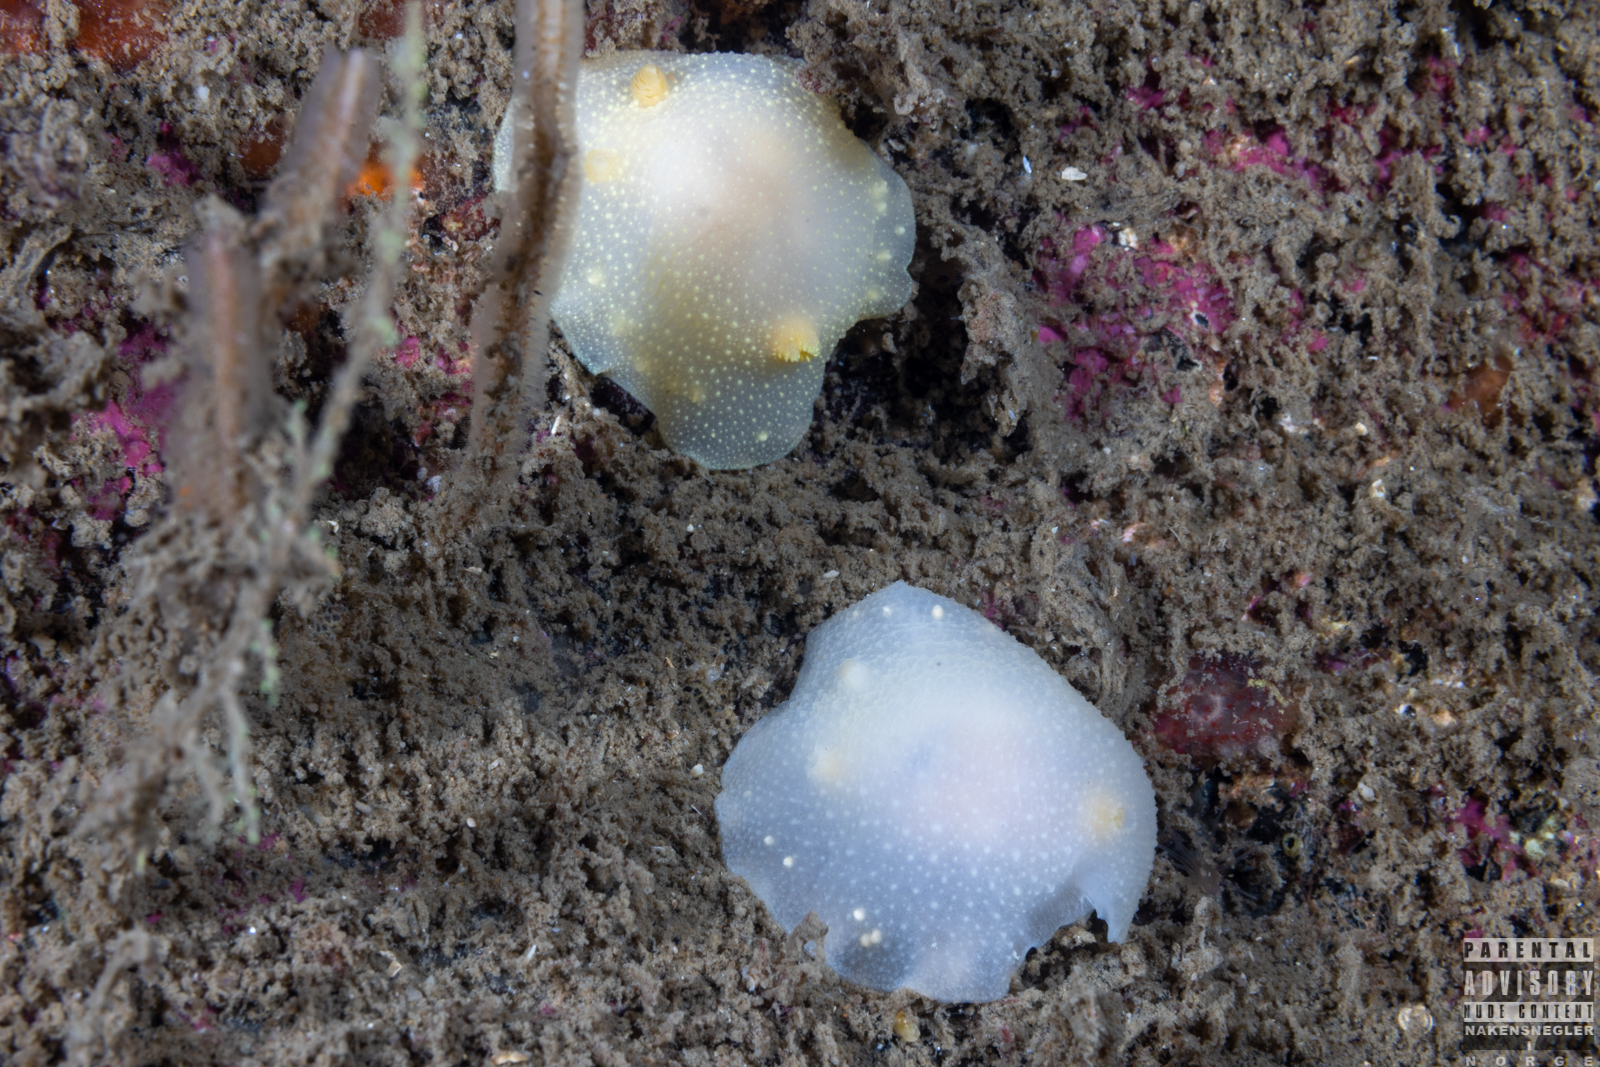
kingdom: Animalia
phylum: Mollusca
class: Gastropoda
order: Nudibranchia
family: Cadlinidae
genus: Cadlina
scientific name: Cadlina laevis
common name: White atlantic cadlina
